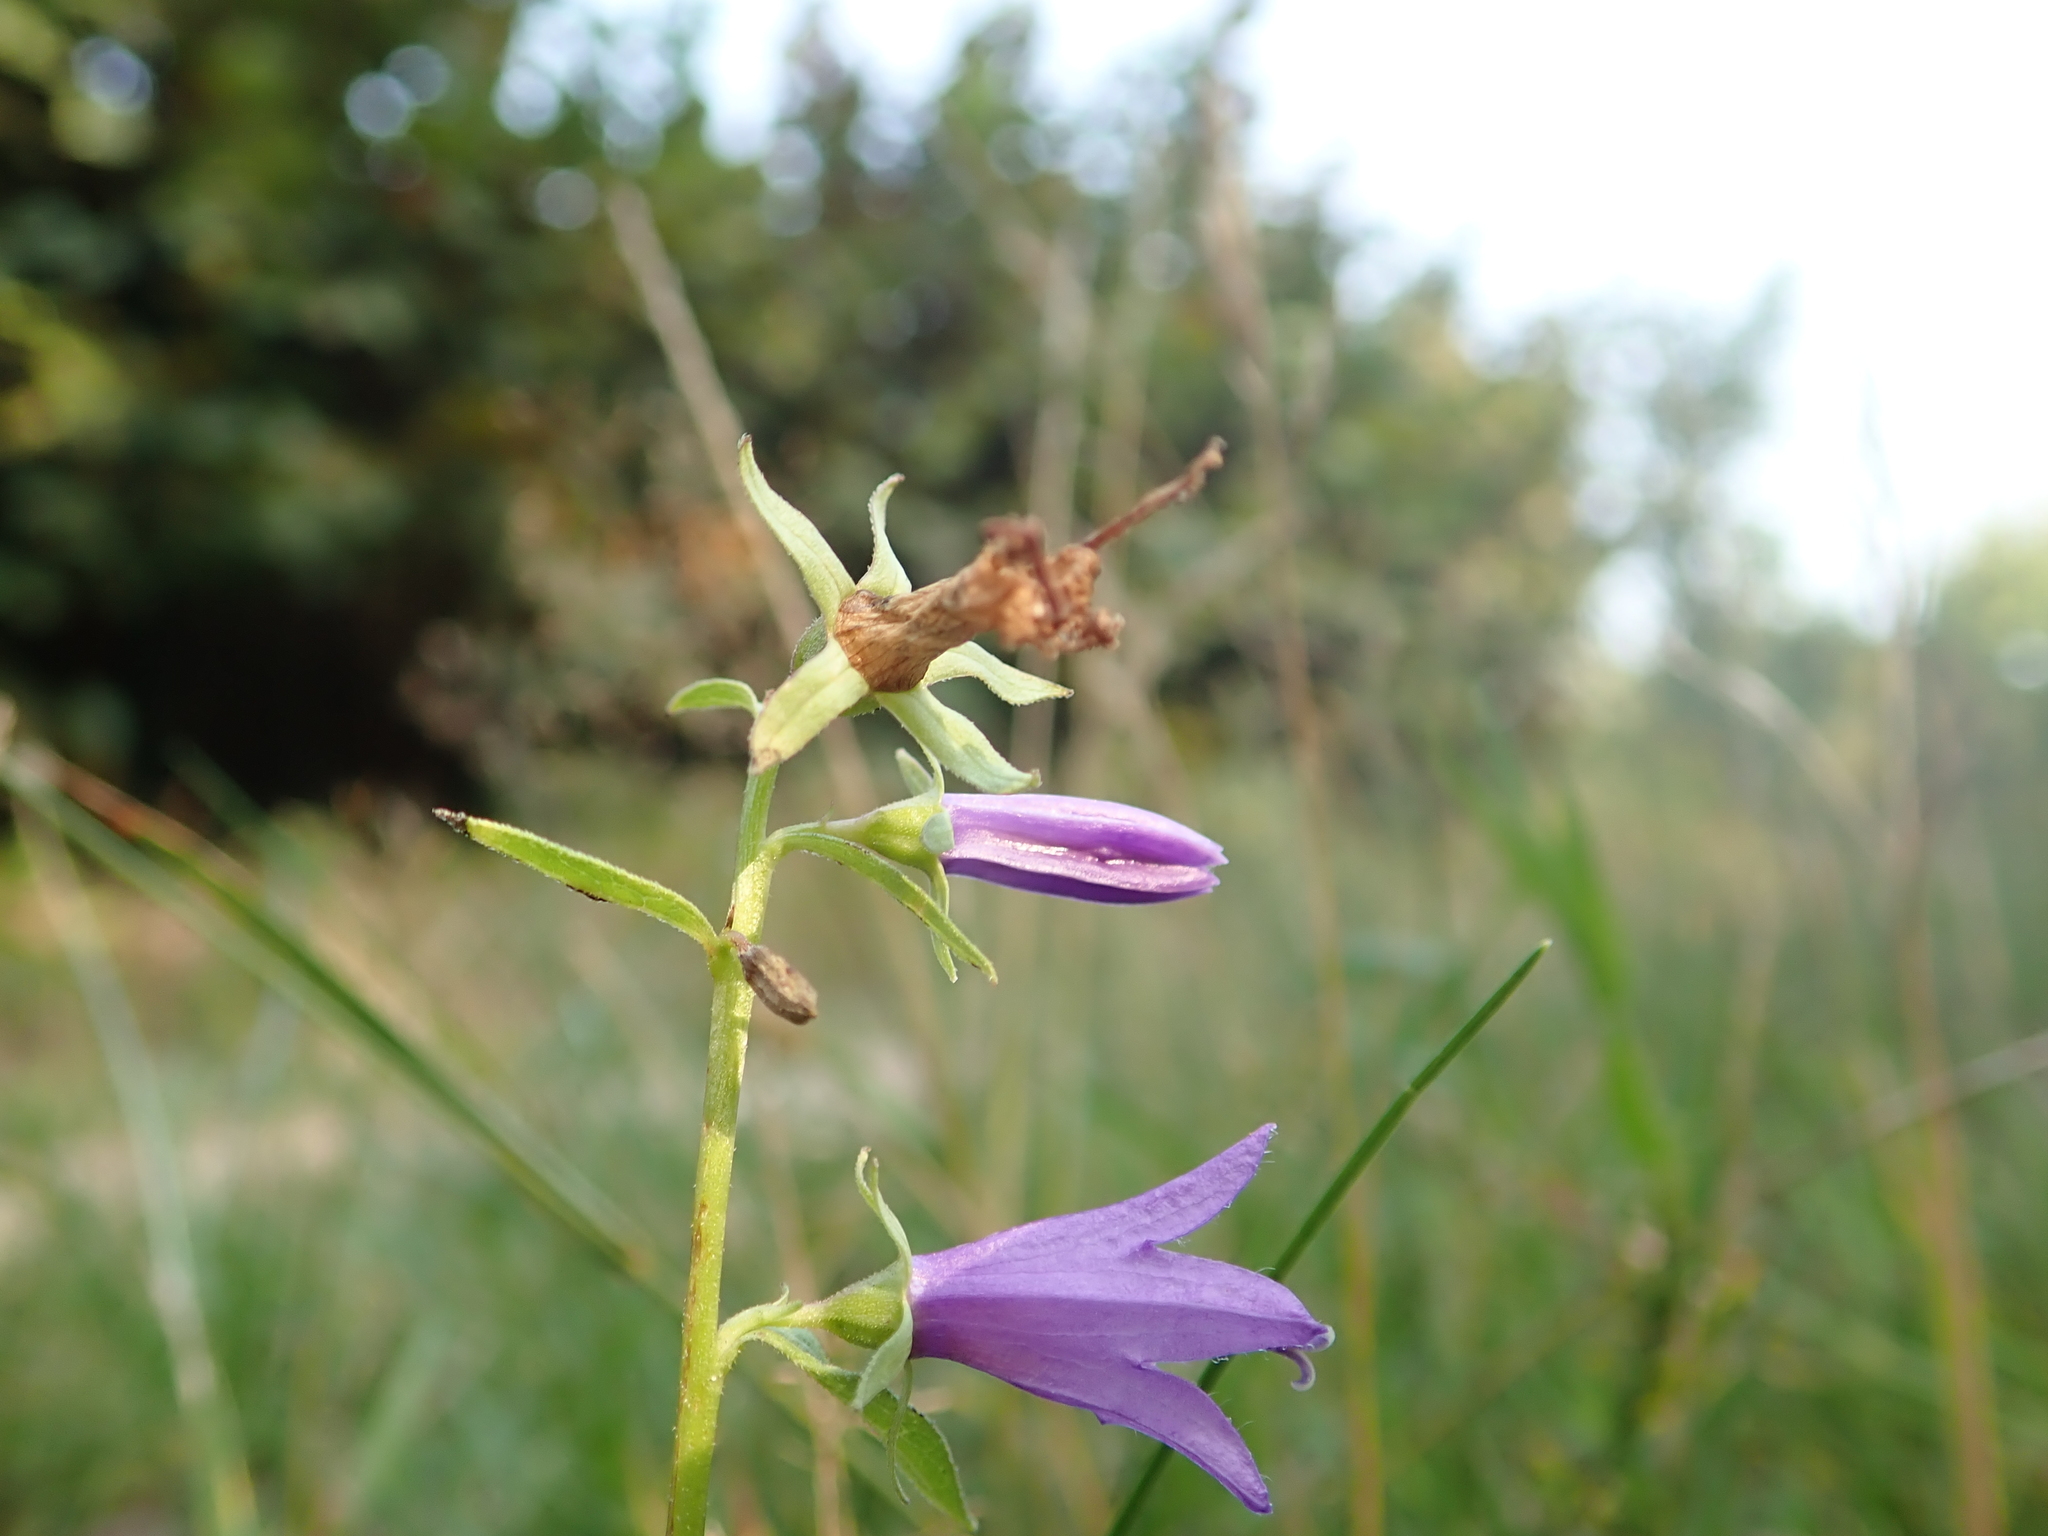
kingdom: Plantae
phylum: Tracheophyta
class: Magnoliopsida
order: Asterales
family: Campanulaceae
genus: Campanula
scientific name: Campanula rapunculoides
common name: Creeping bellflower
